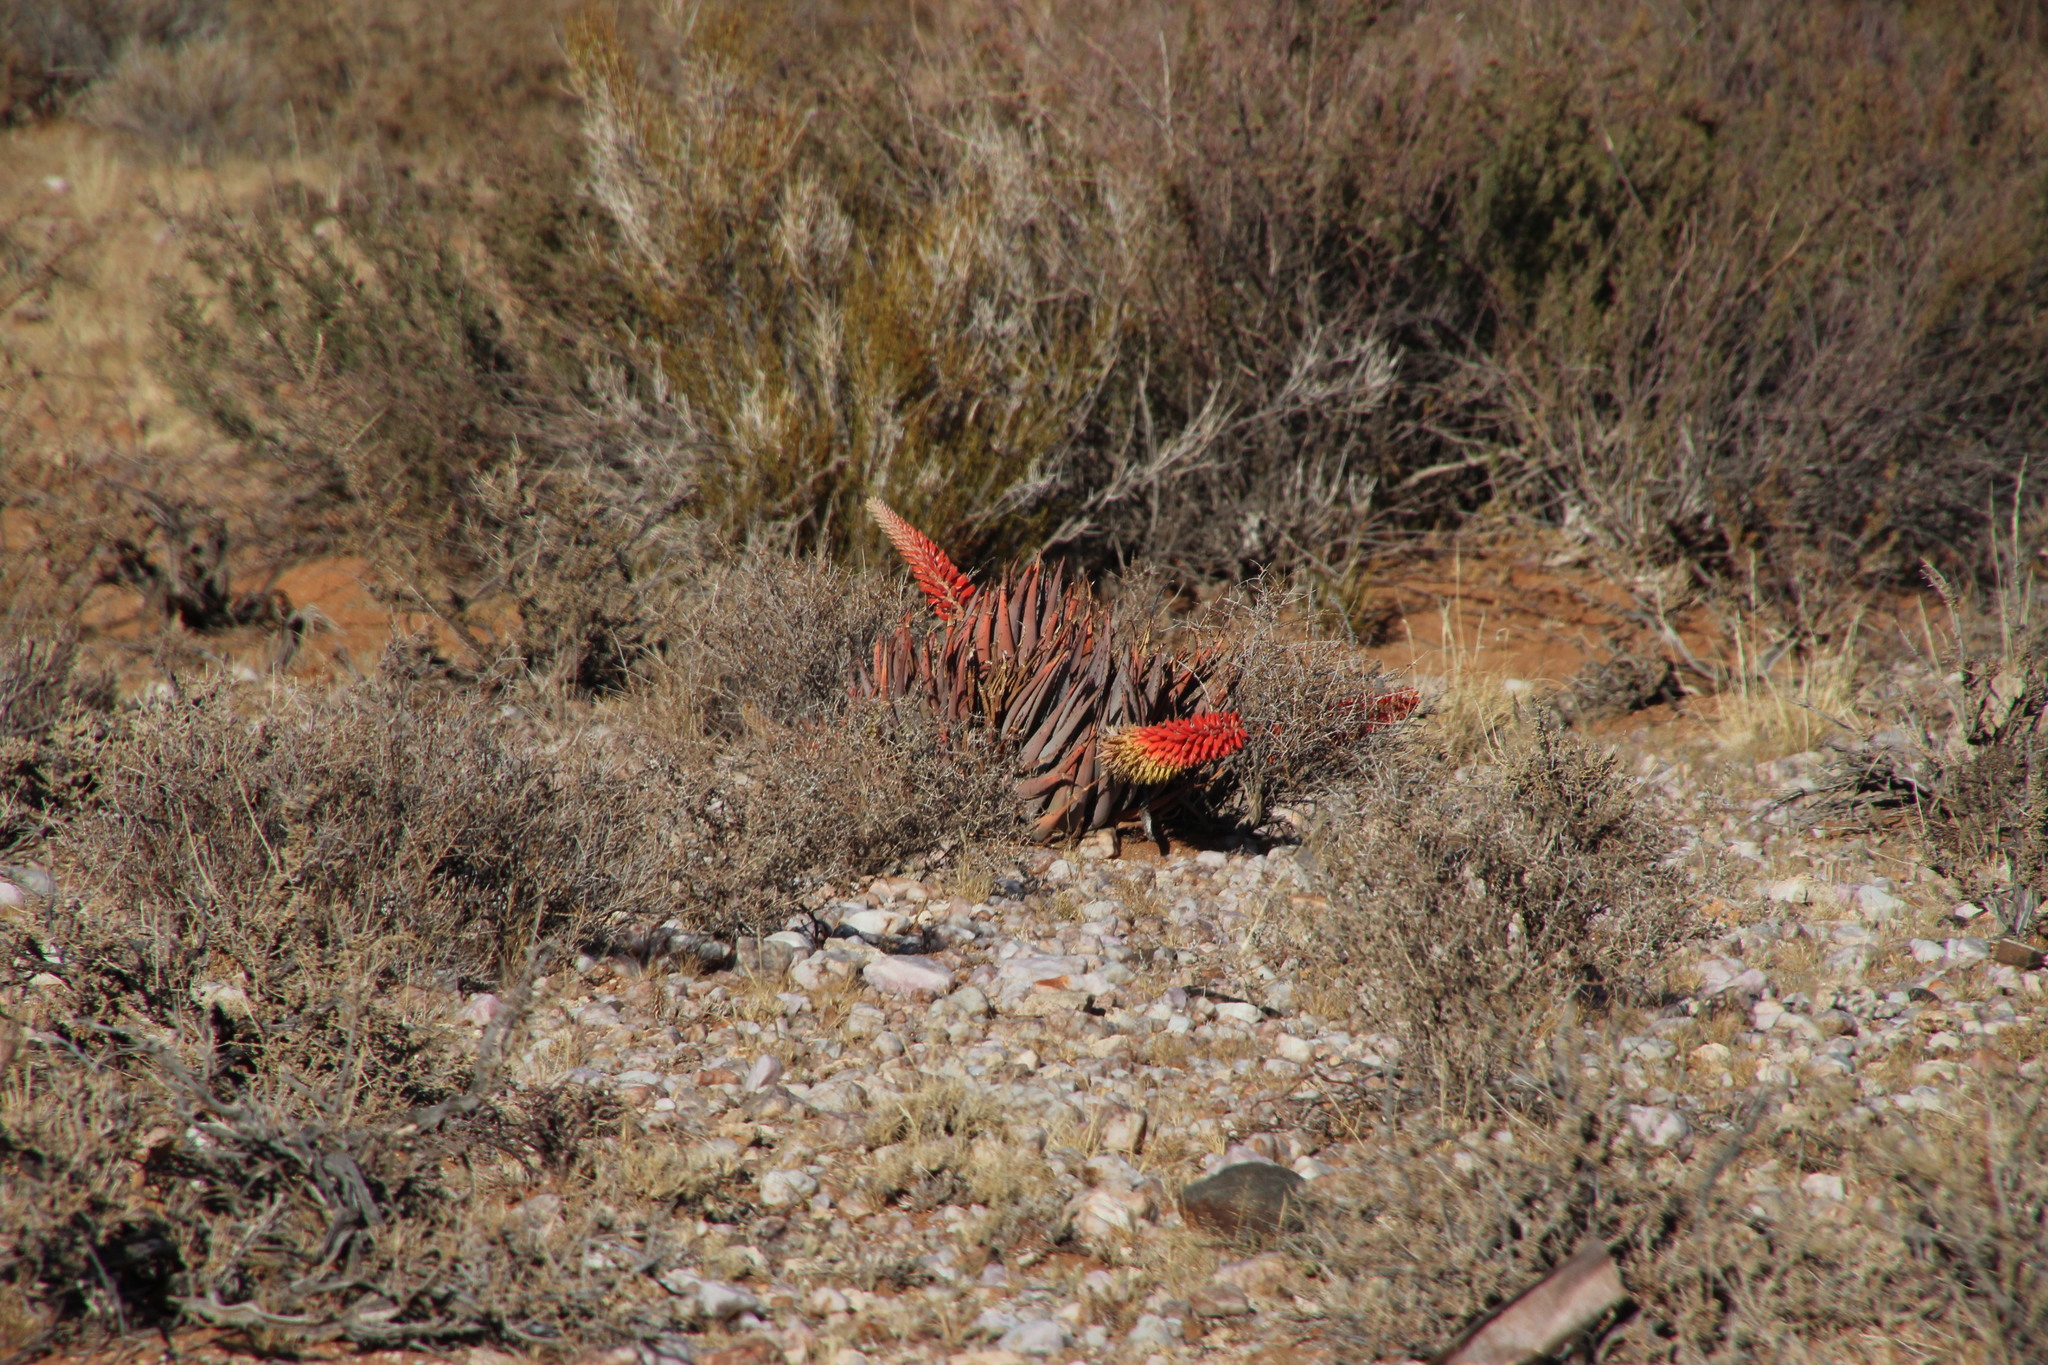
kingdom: Plantae
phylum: Tracheophyta
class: Liliopsida
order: Asparagales
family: Asphodelaceae
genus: Aloe
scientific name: Aloe claviflora
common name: Cannon aloe
